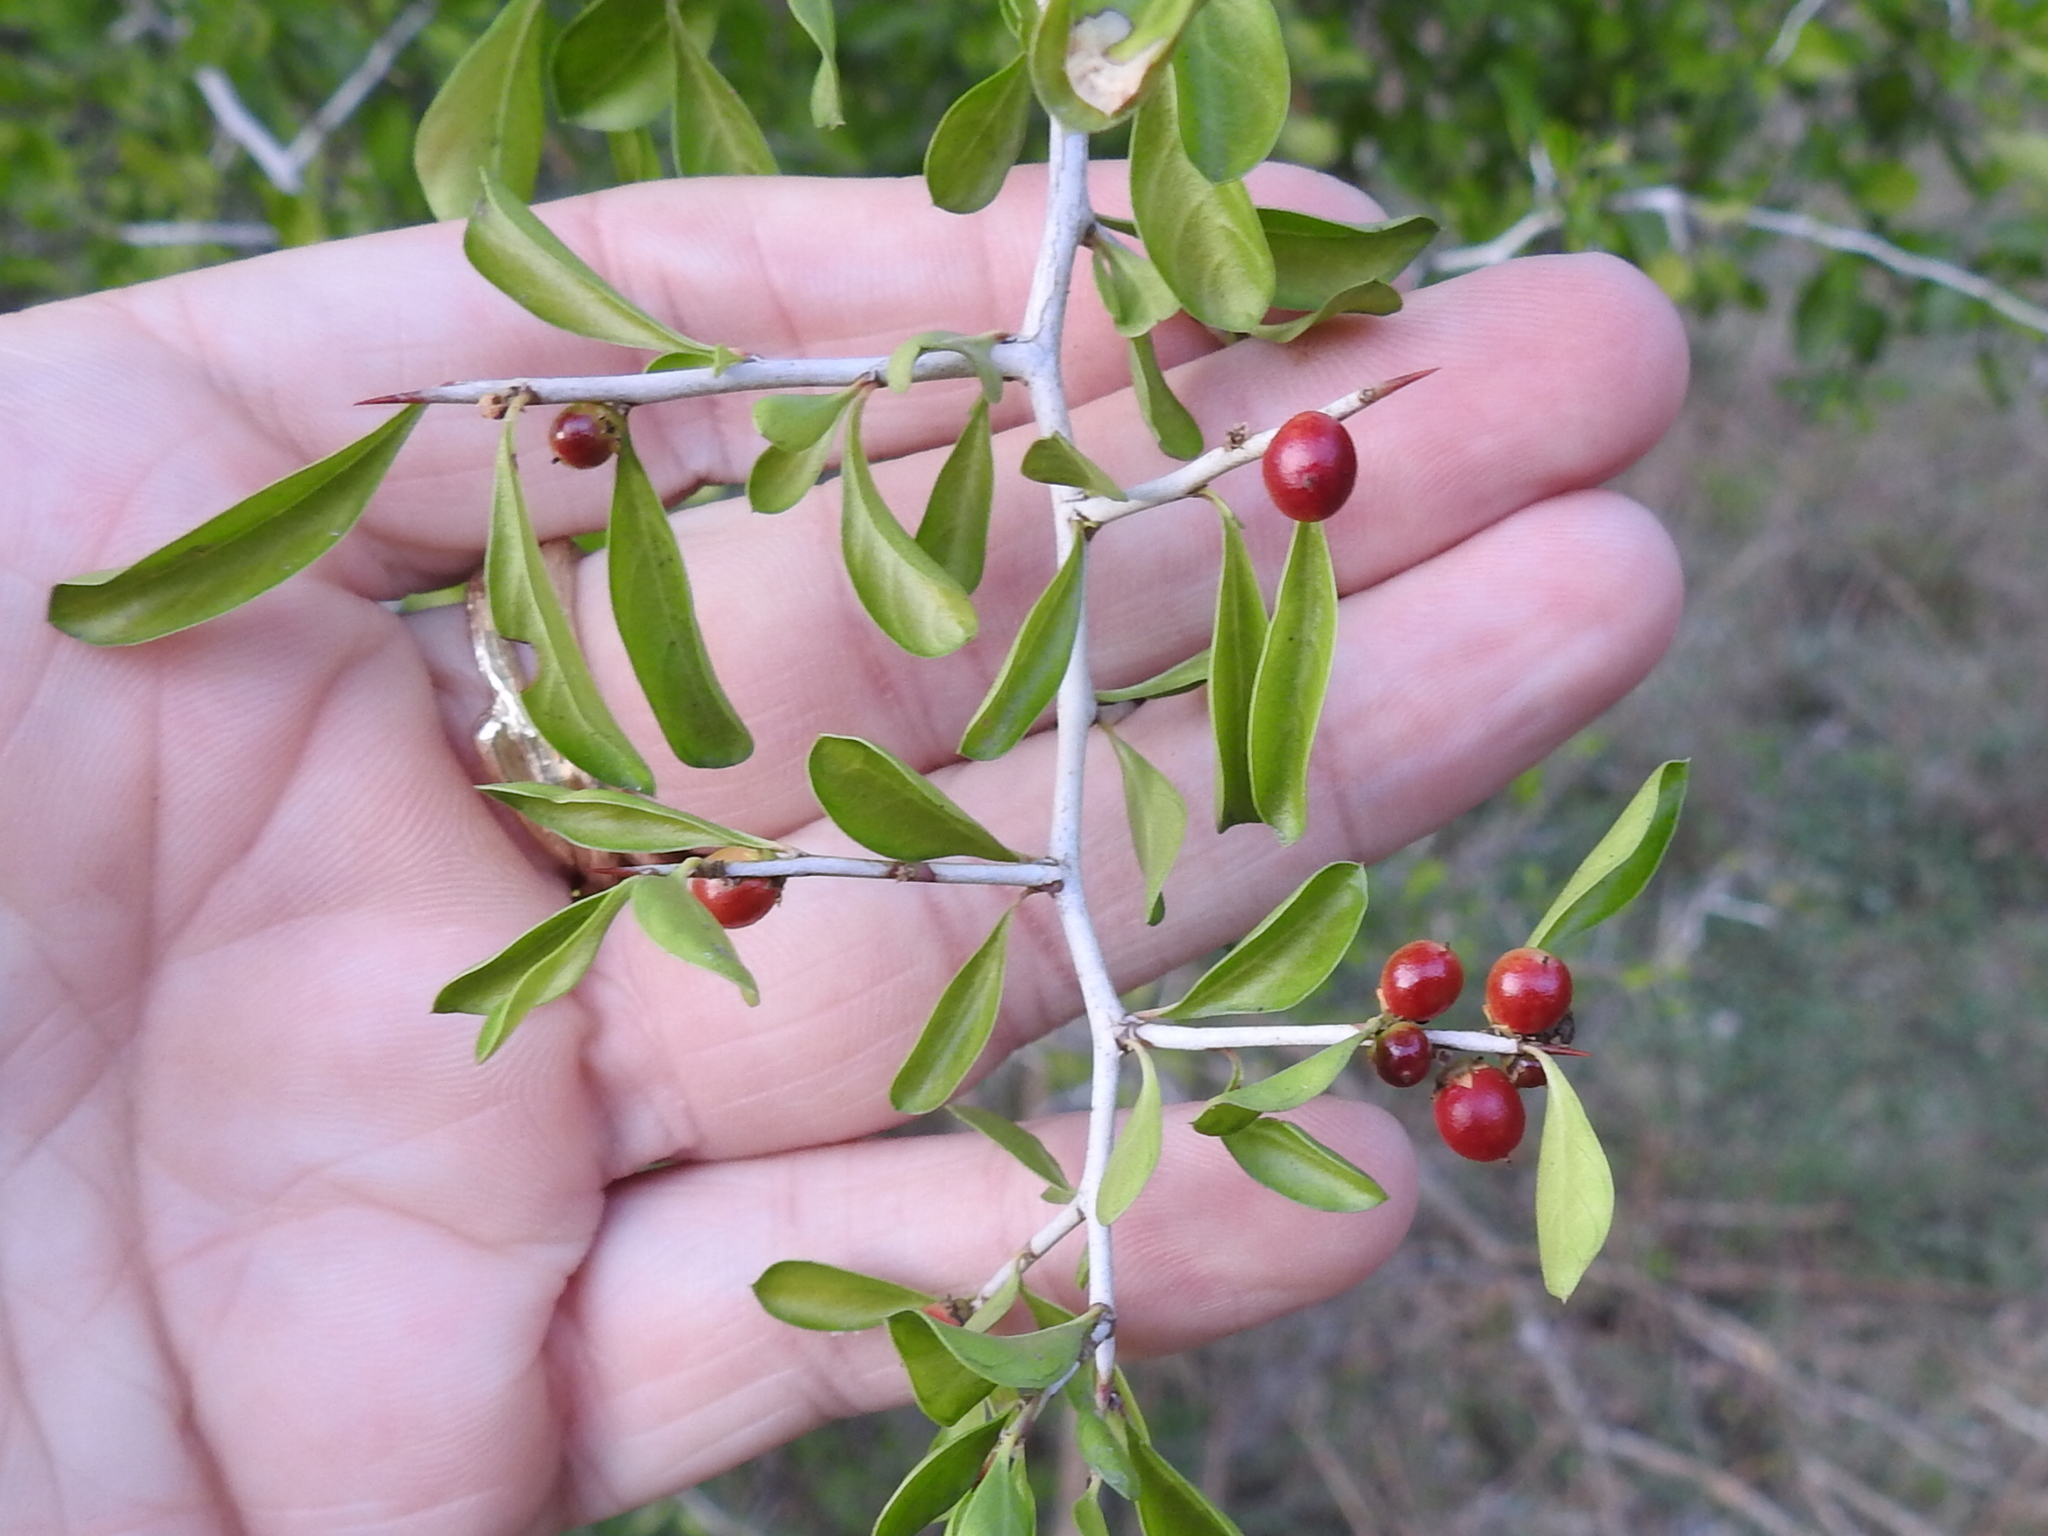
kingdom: Plantae
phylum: Tracheophyta
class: Magnoliopsida
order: Rosales
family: Rhamnaceae
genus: Condalia
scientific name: Condalia hookeri
